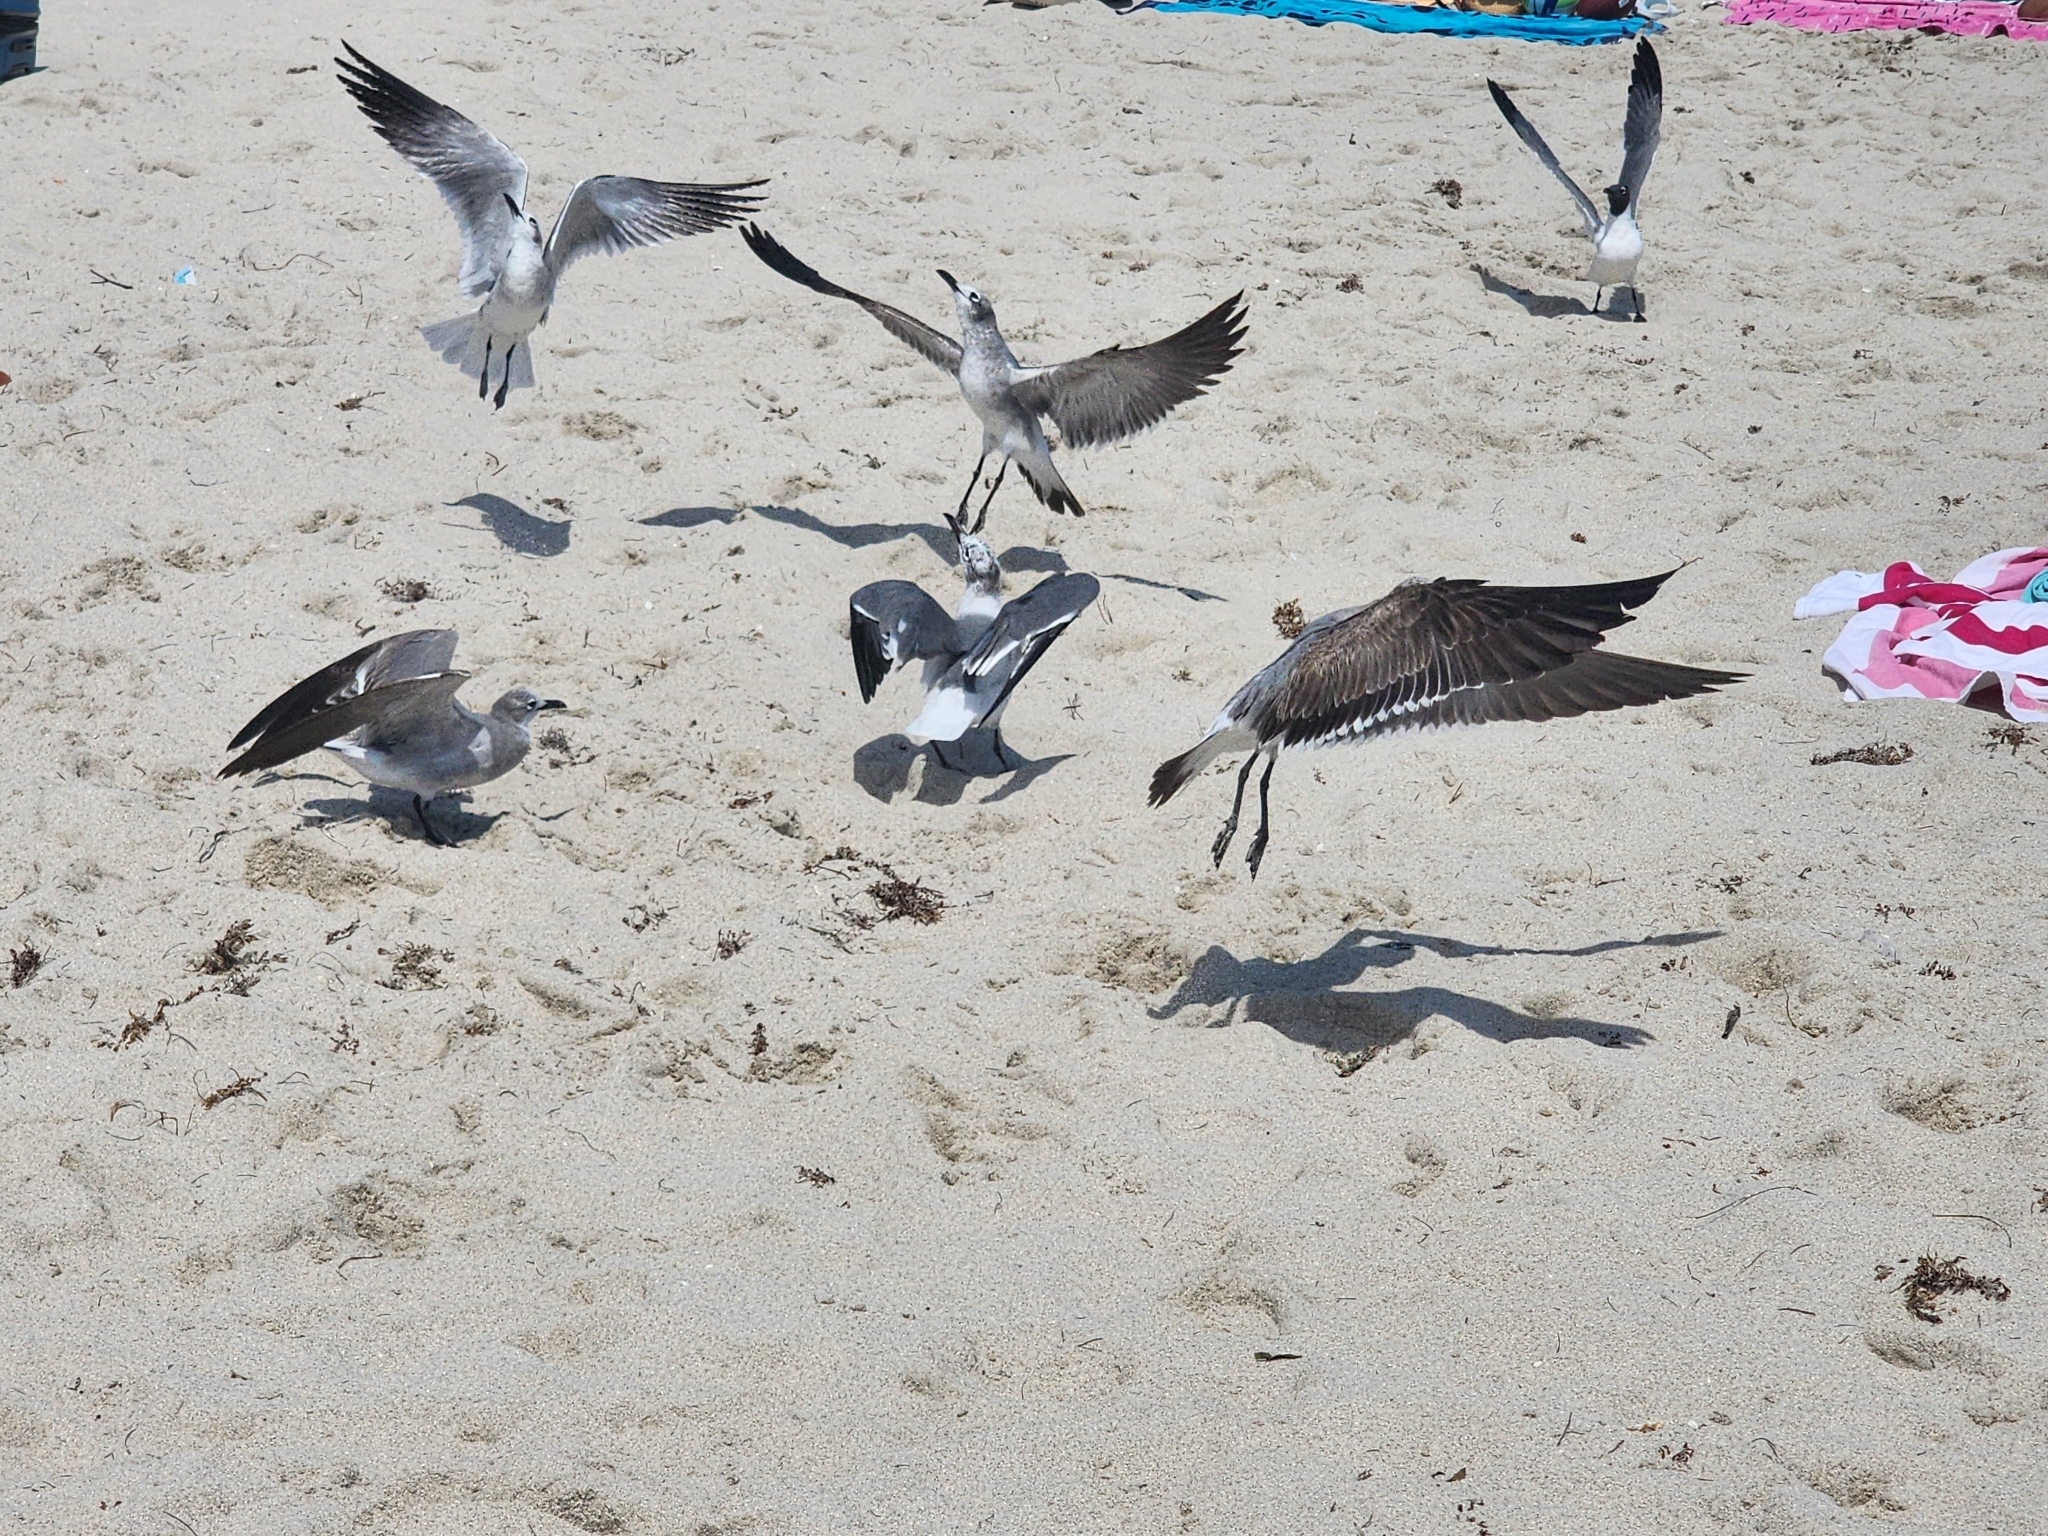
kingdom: Animalia
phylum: Chordata
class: Aves
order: Charadriiformes
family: Laridae
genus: Leucophaeus
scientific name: Leucophaeus atricilla
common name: Laughing gull
